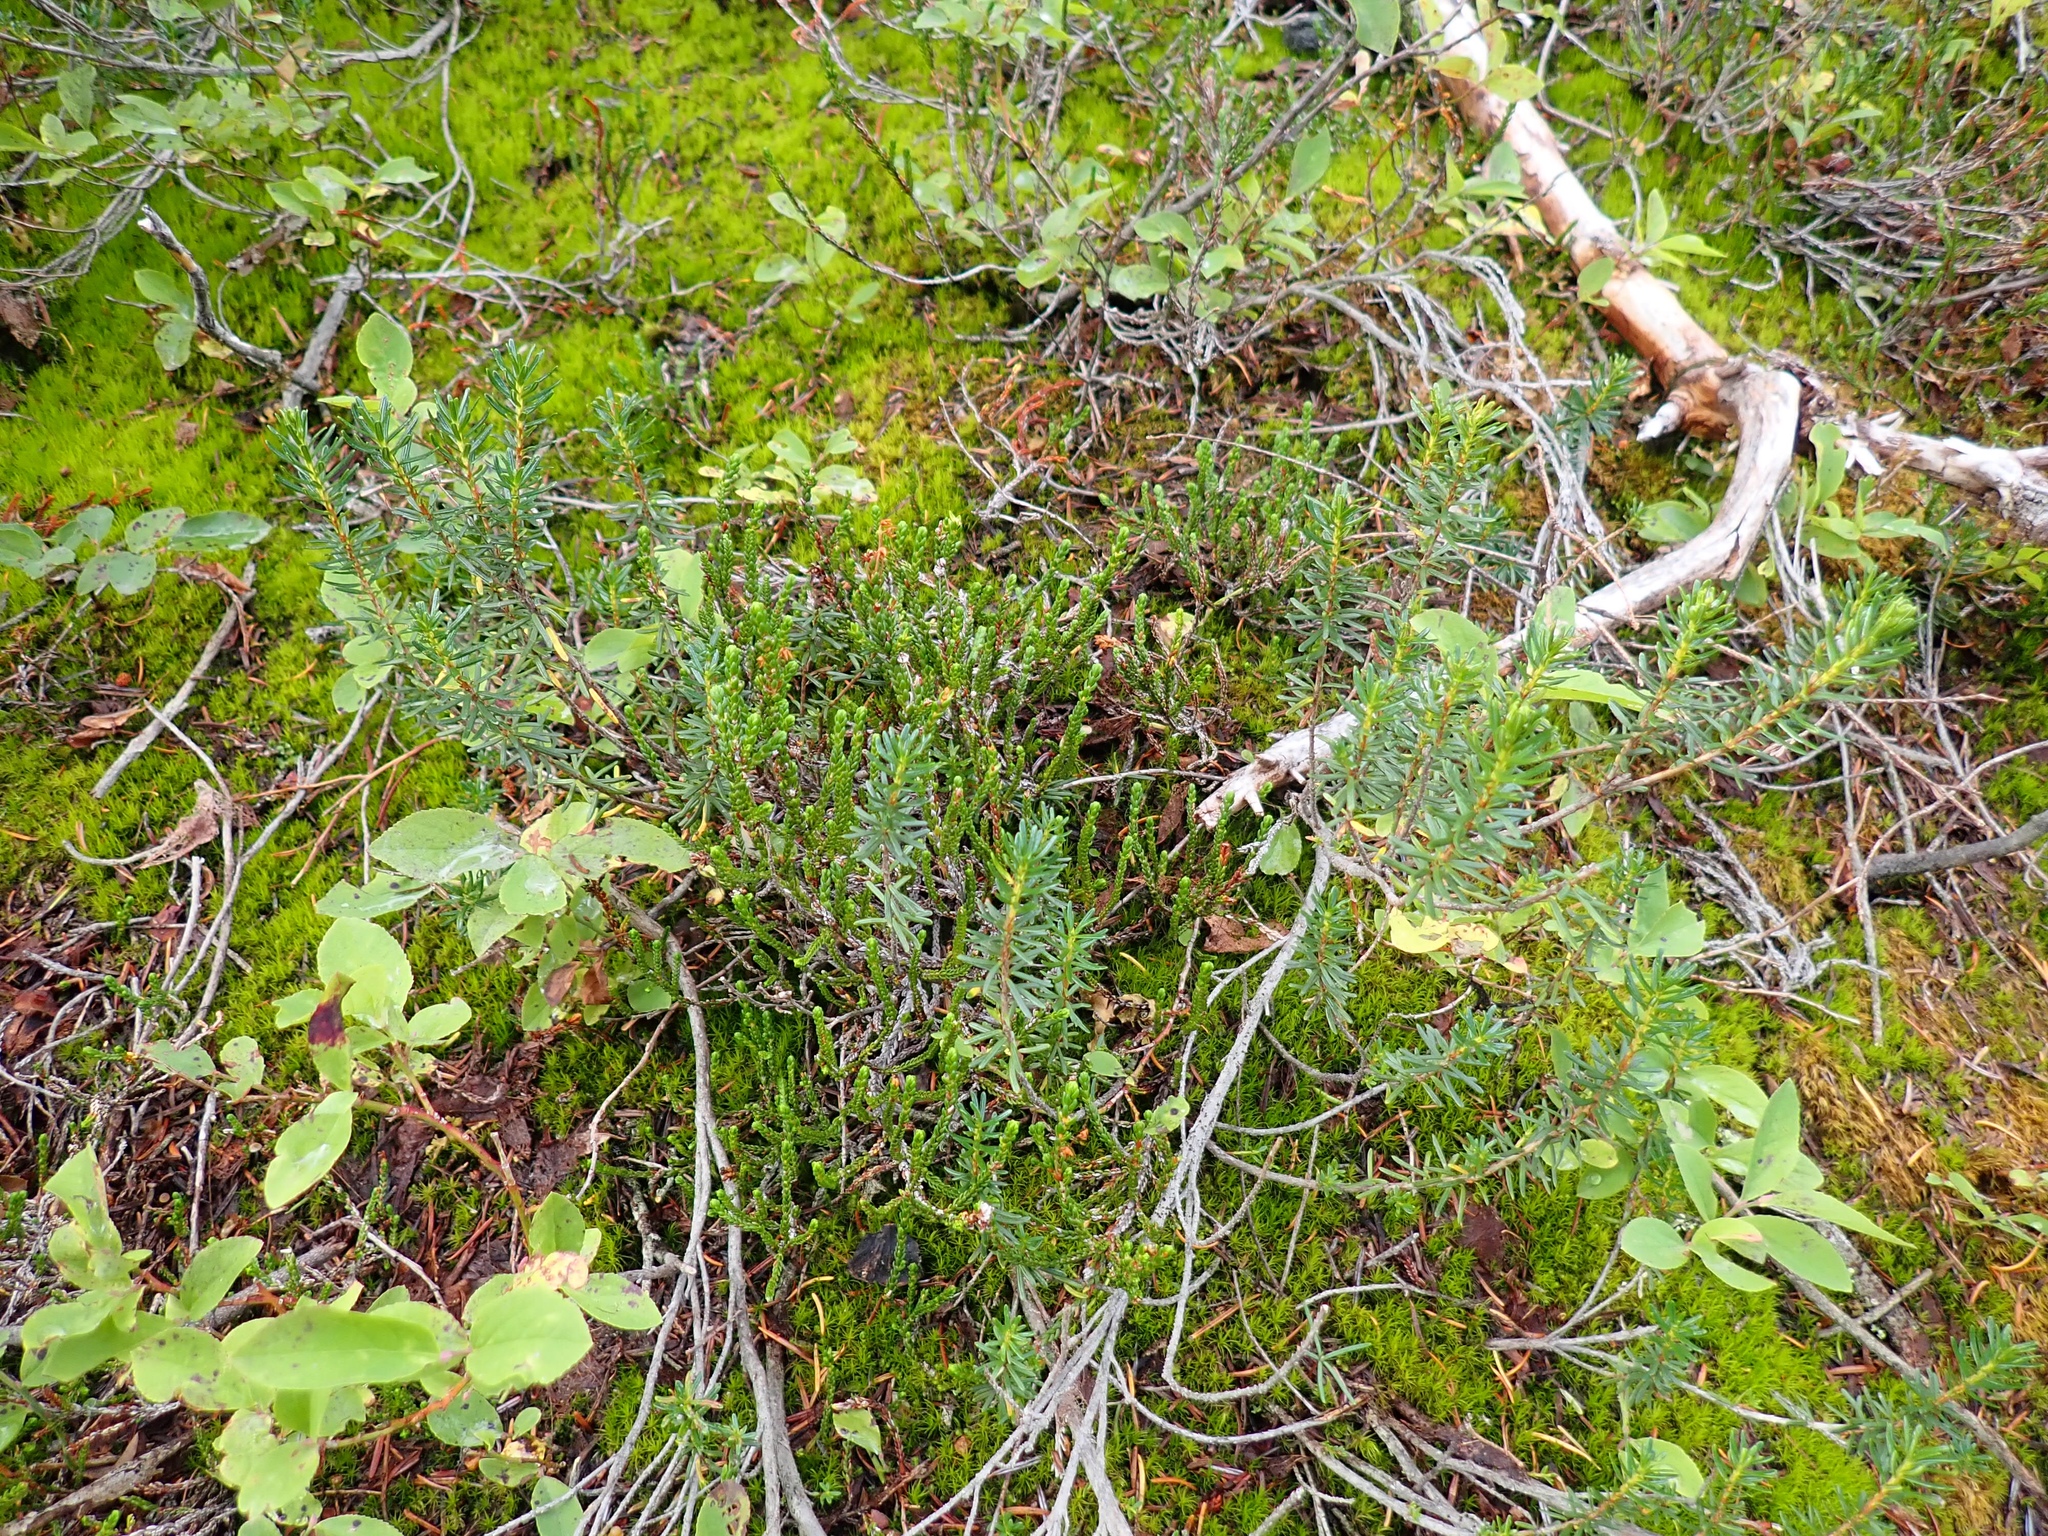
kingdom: Plantae
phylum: Tracheophyta
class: Magnoliopsida
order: Ericales
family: Ericaceae
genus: Cassiope
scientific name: Cassiope mertensiana
